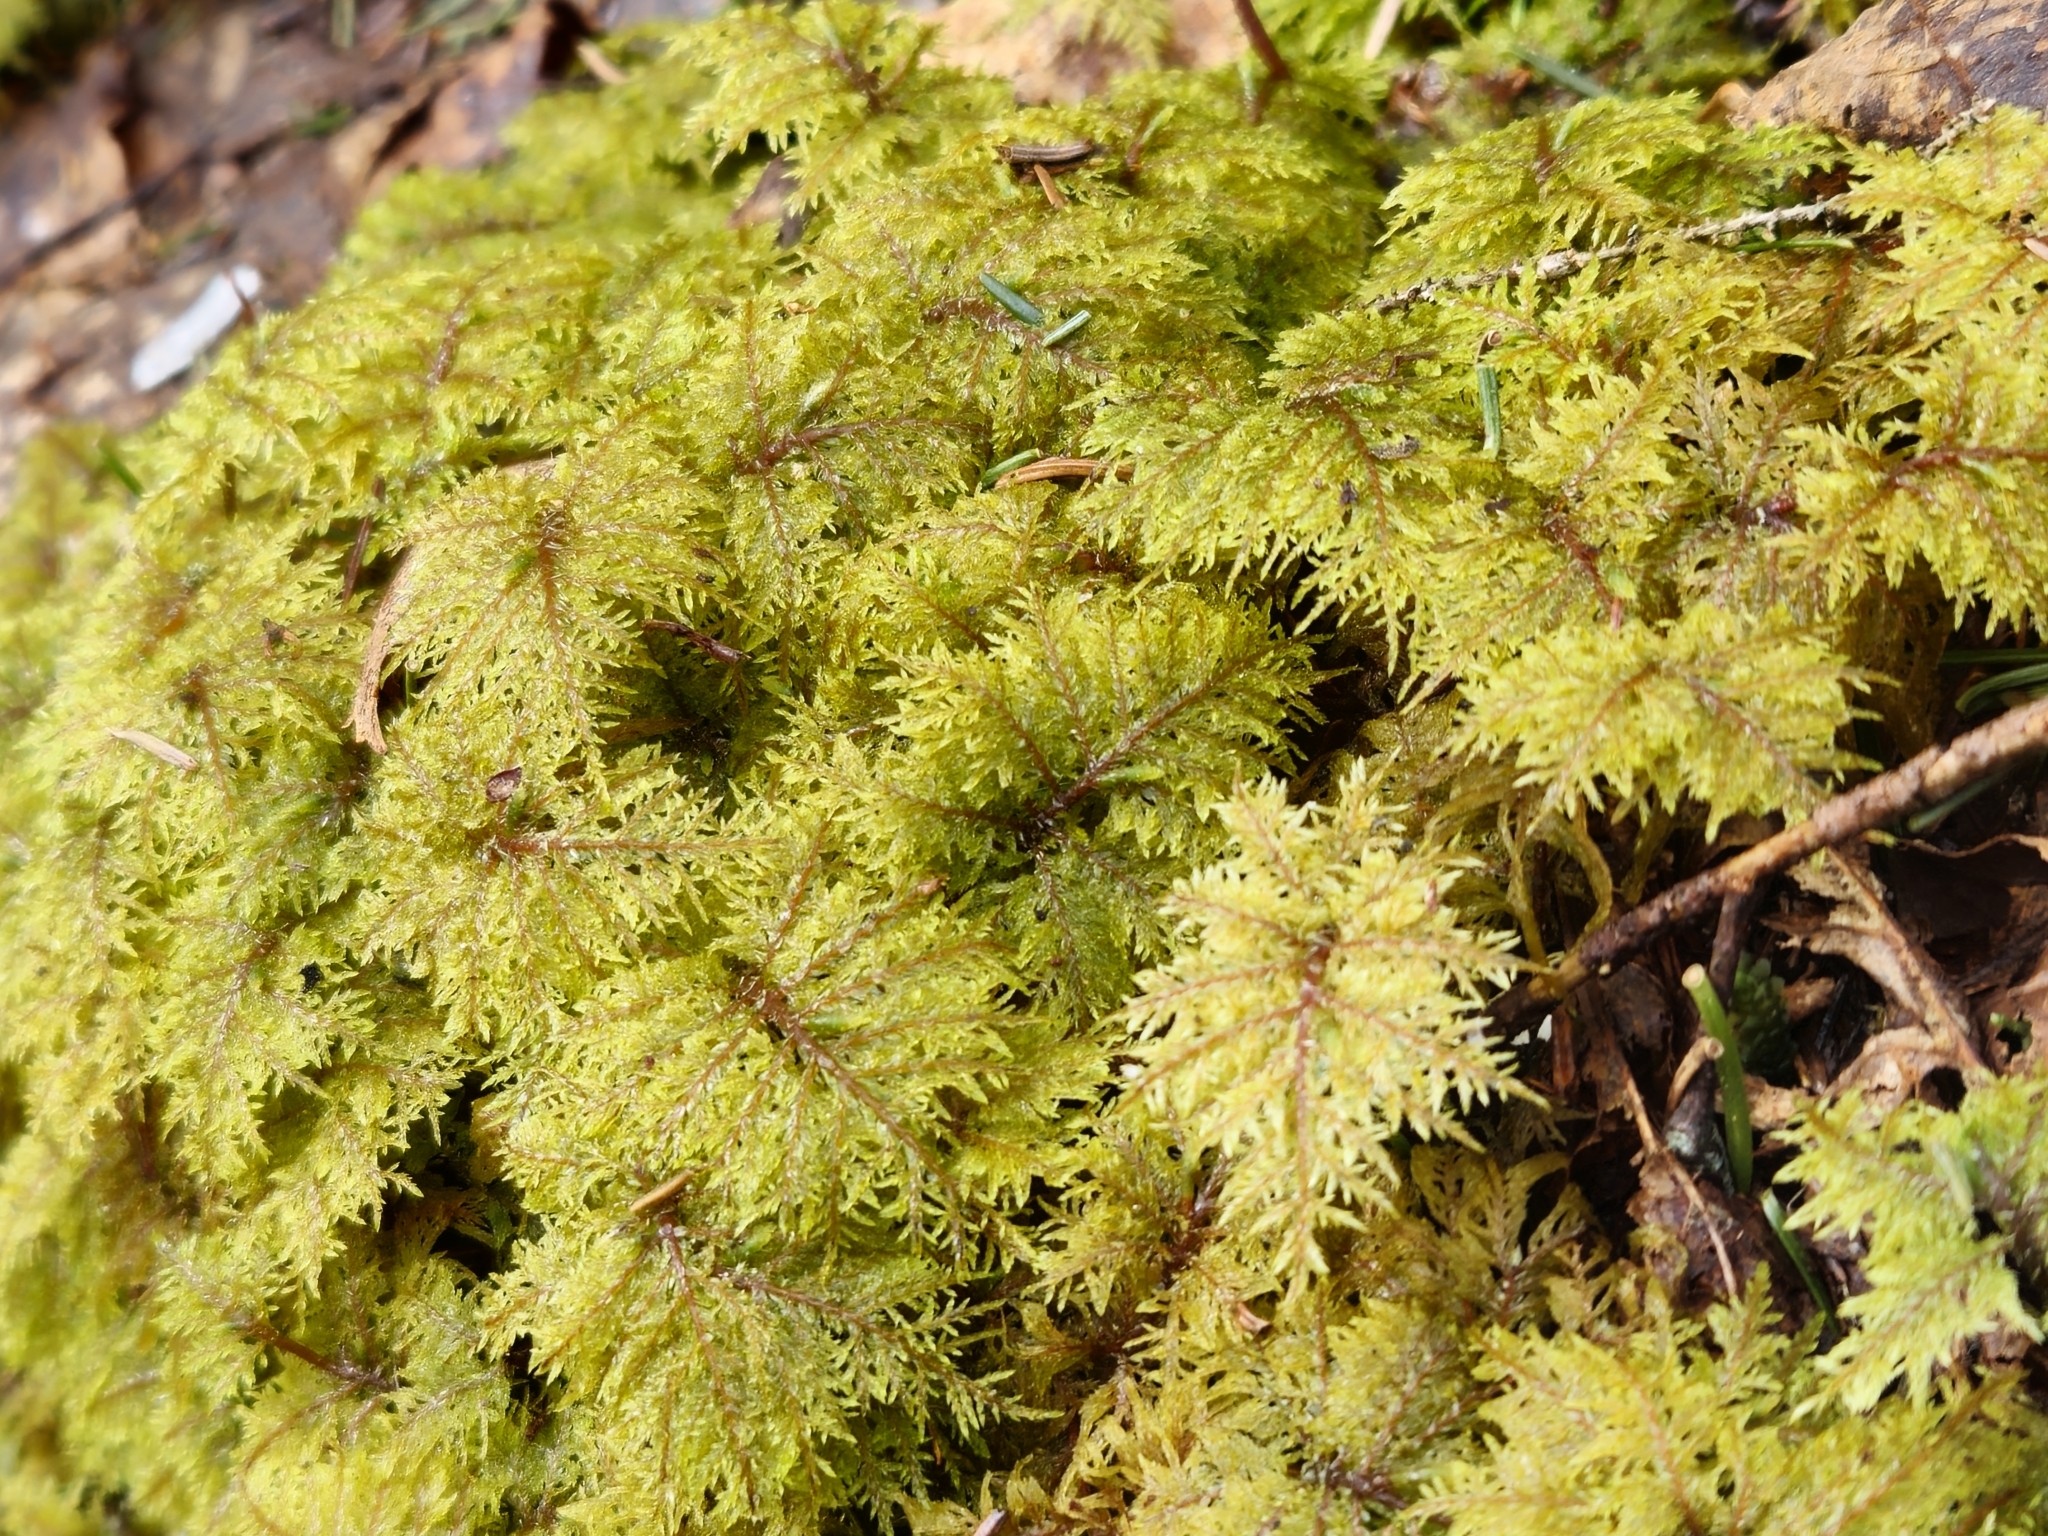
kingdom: Plantae
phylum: Bryophyta
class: Bryopsida
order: Hypnales
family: Hylocomiaceae
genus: Hylocomium
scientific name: Hylocomium splendens
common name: Stairstep moss
